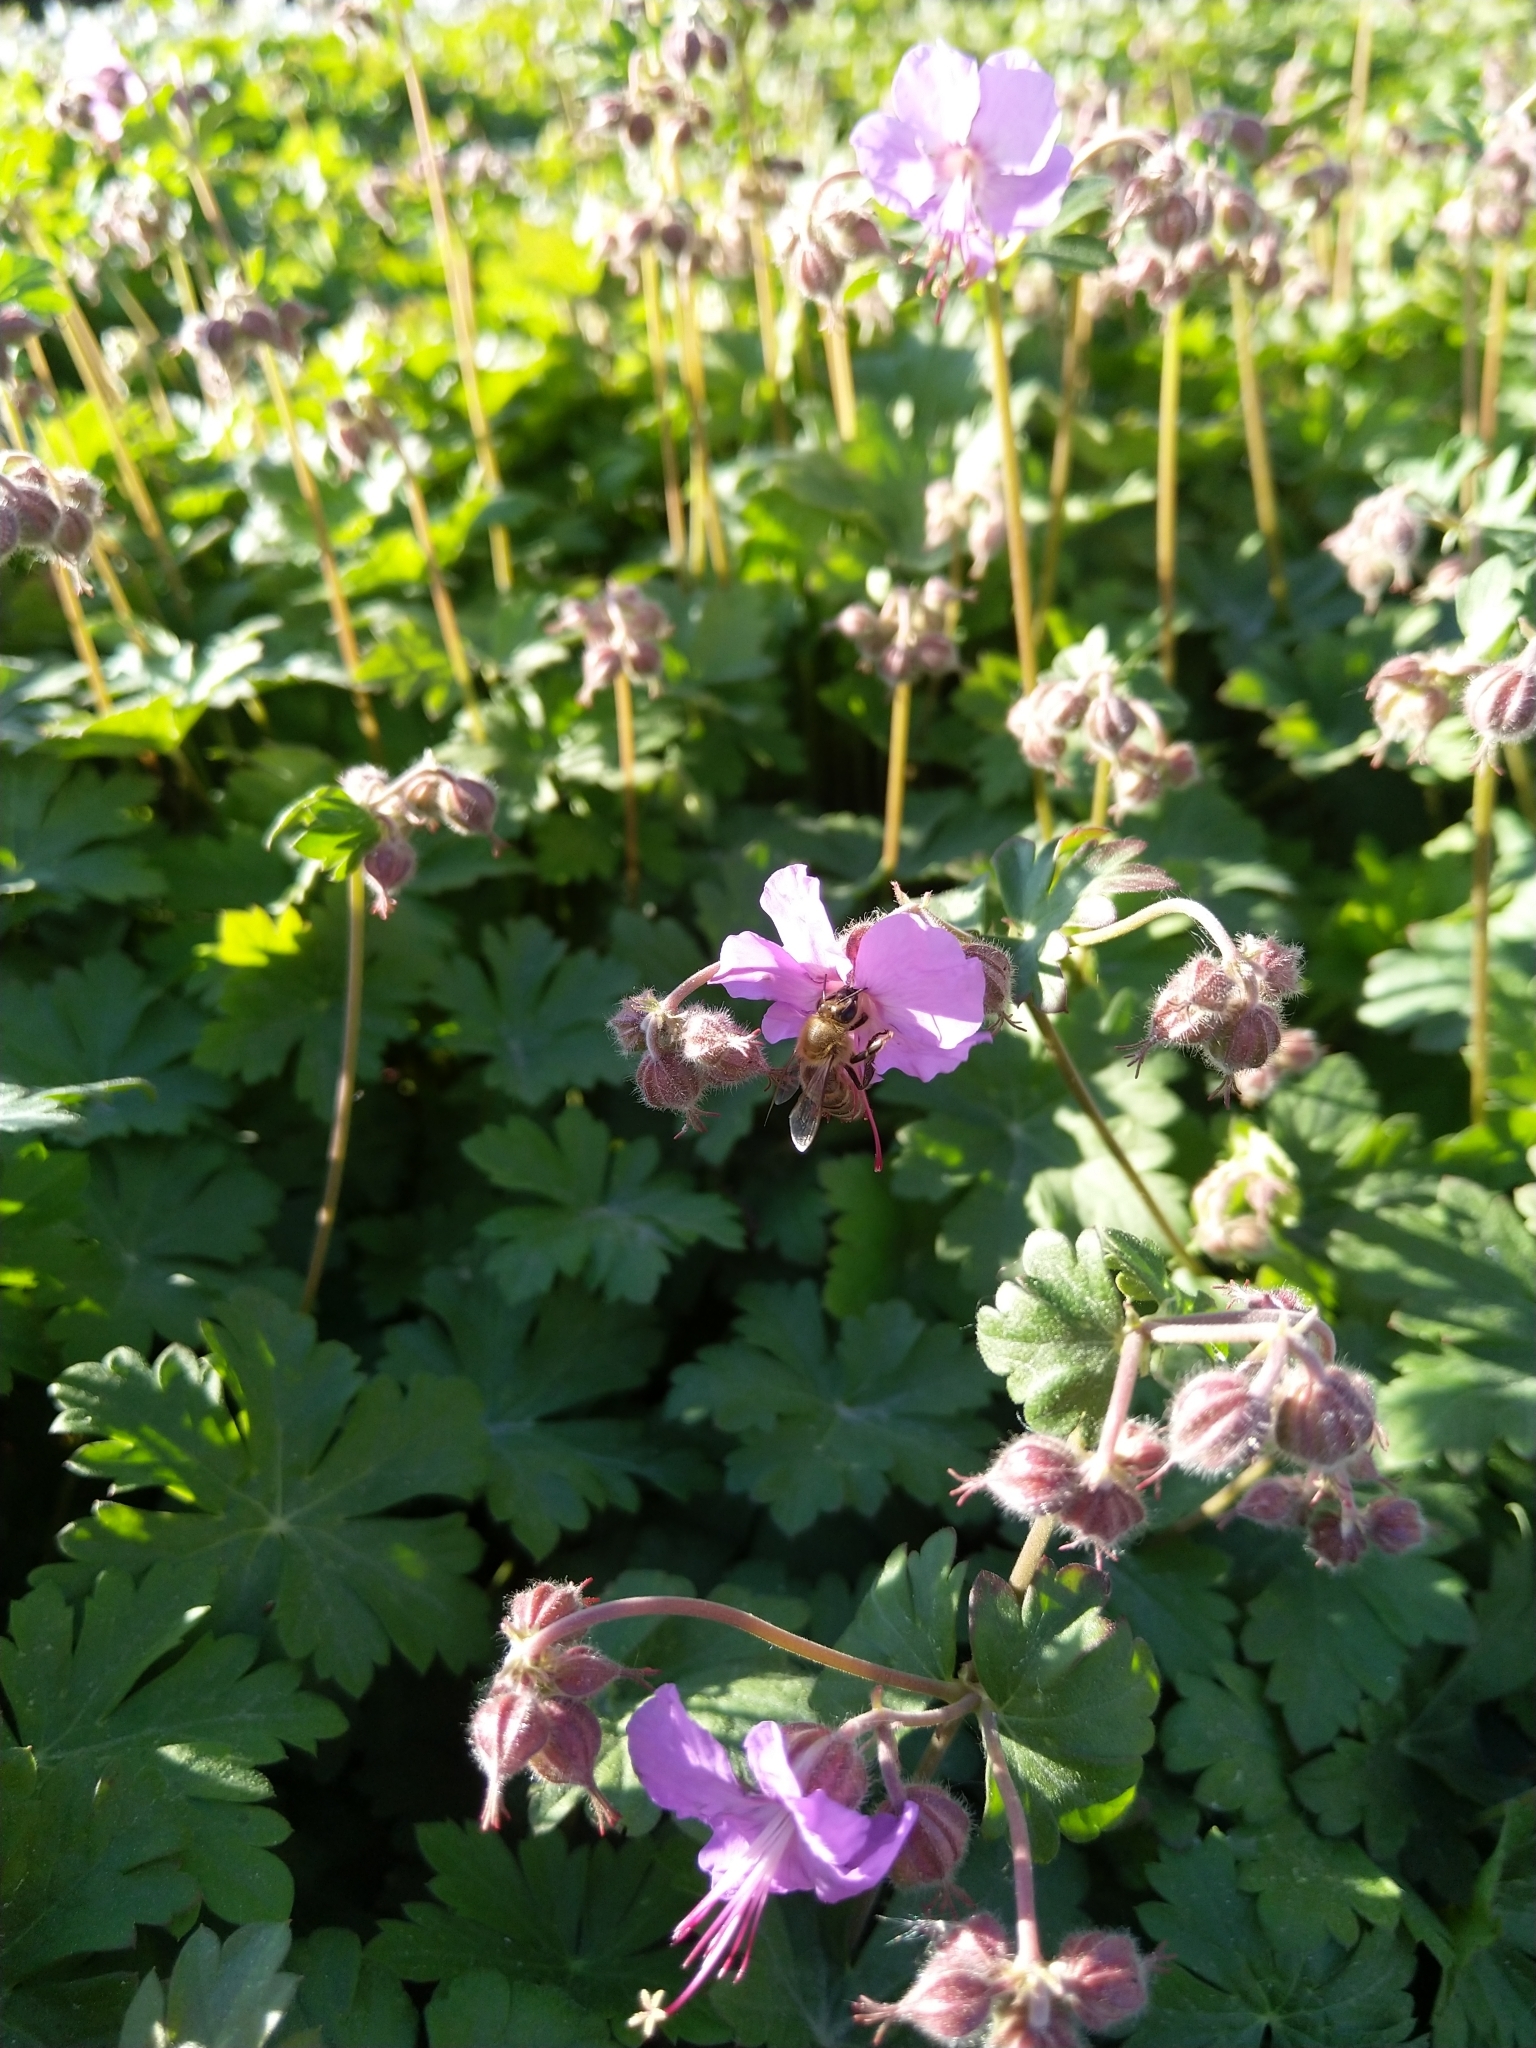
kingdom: Animalia
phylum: Arthropoda
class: Insecta
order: Hymenoptera
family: Apidae
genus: Apis
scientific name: Apis mellifera
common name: Honey bee
